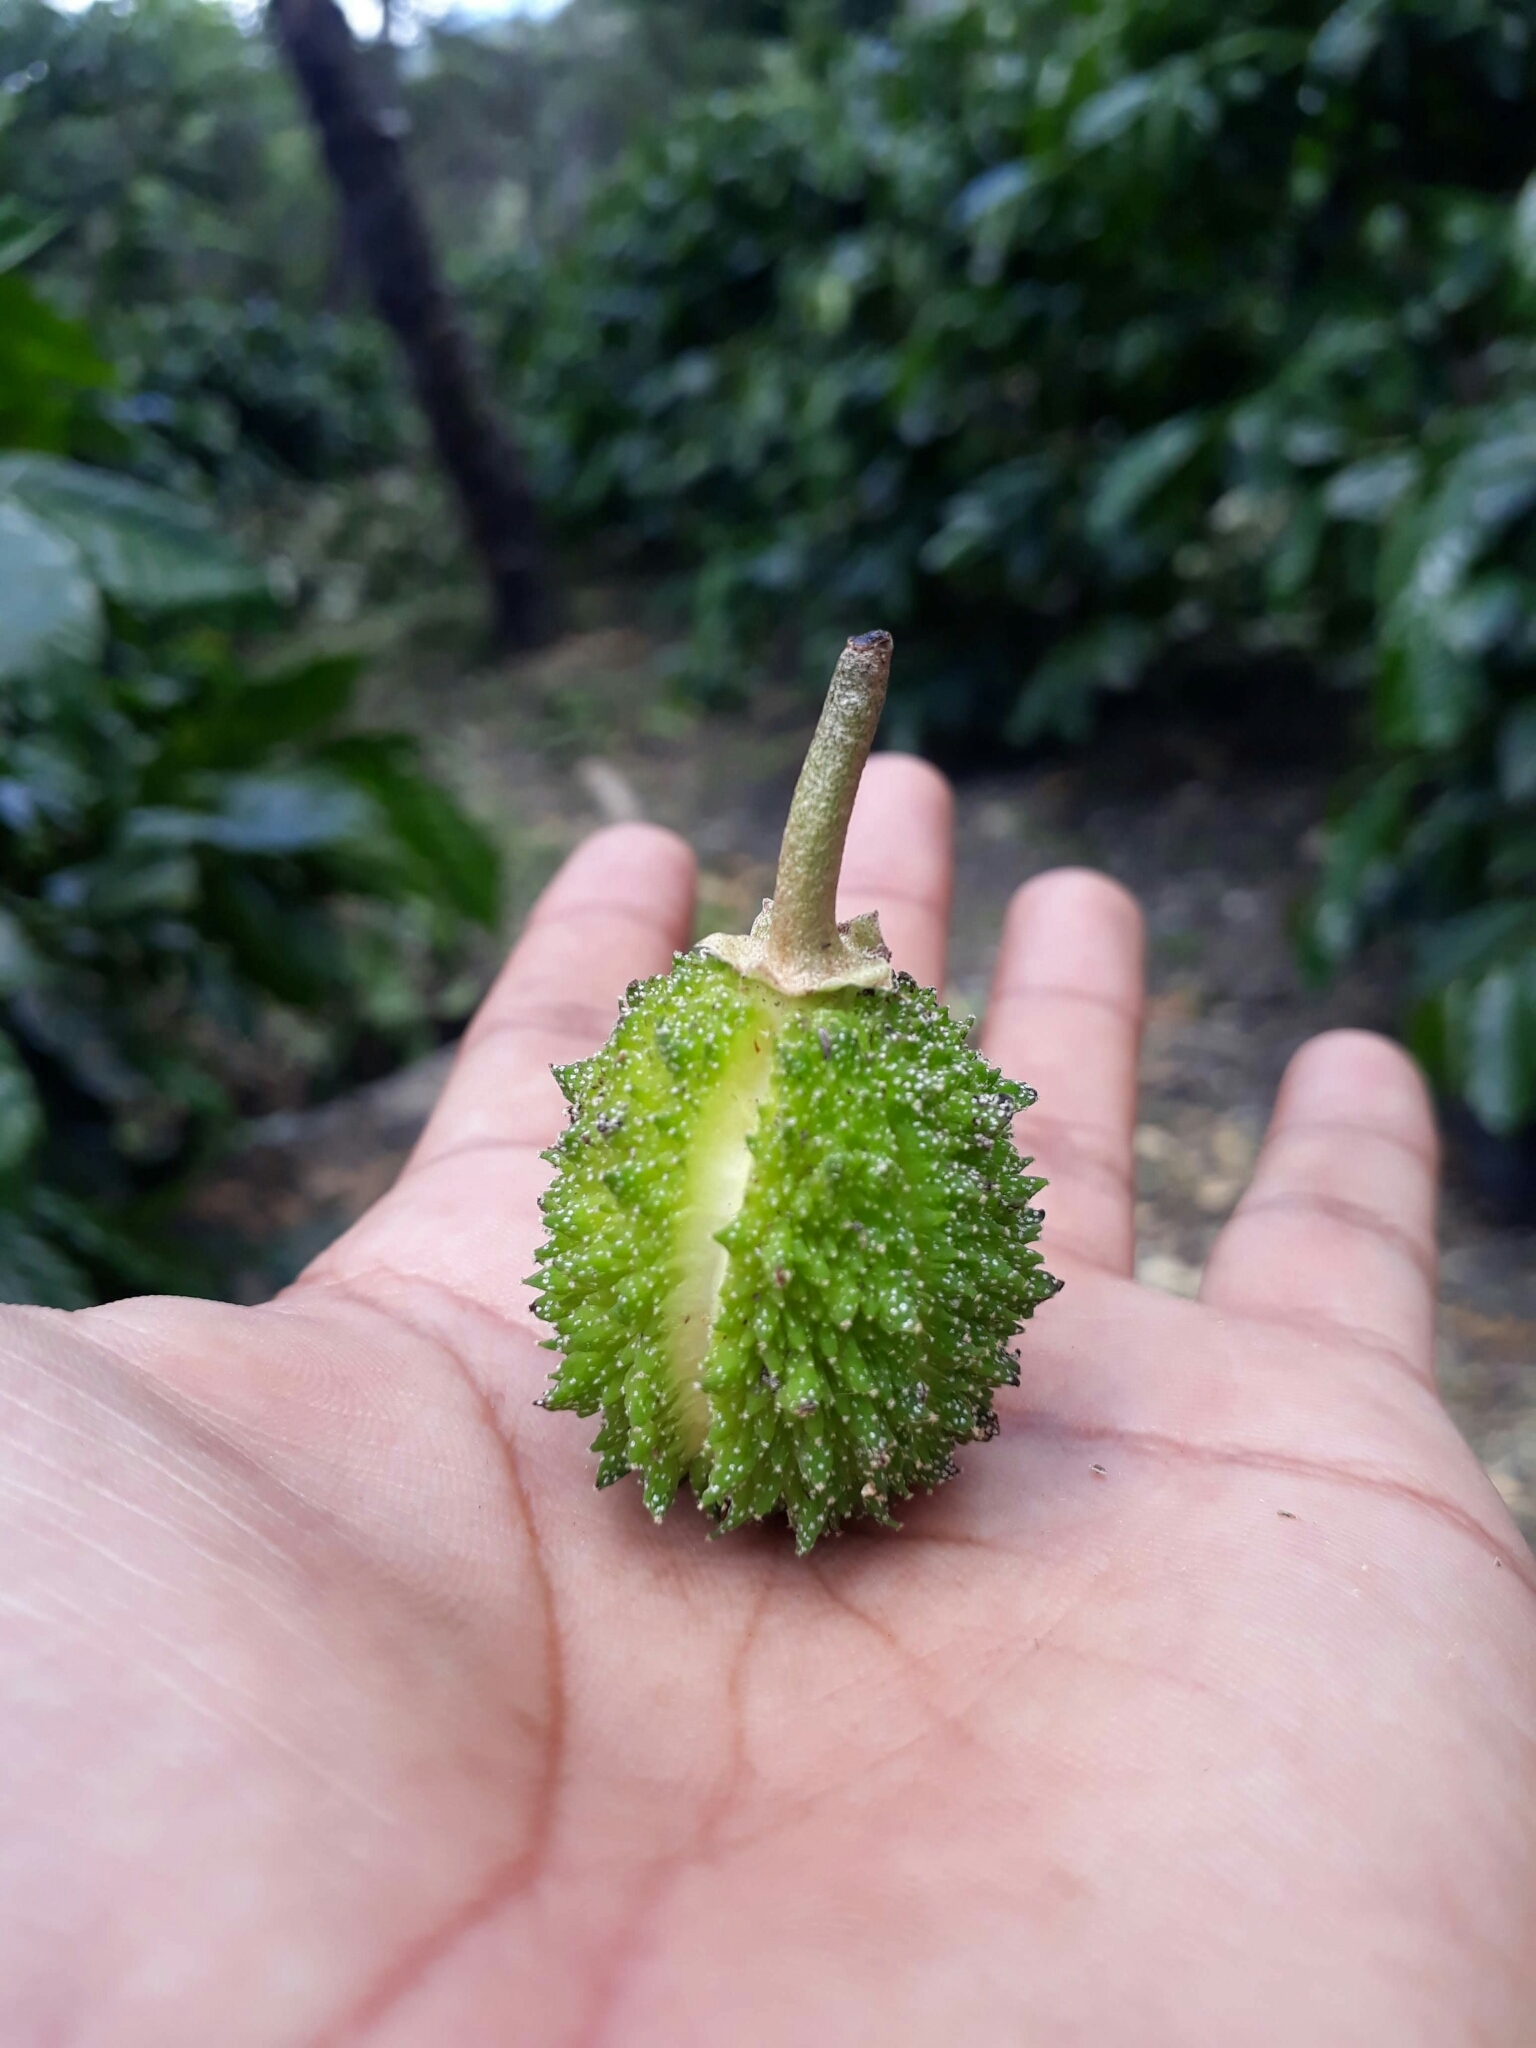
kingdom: Plantae
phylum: Tracheophyta
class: Magnoliopsida
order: Malpighiales
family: Euphorbiaceae
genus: Croton
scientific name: Croton guatemalensis
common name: Copalchi
